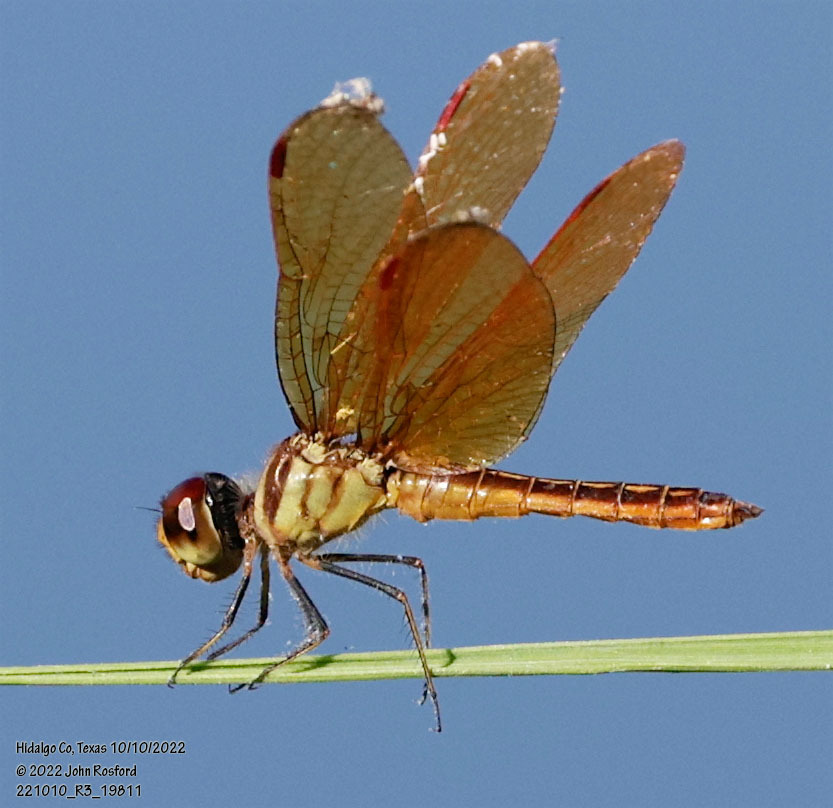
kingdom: Animalia
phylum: Arthropoda
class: Insecta
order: Odonata
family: Libellulidae
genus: Perithemis
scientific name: Perithemis domitia
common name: Slough amberwing
